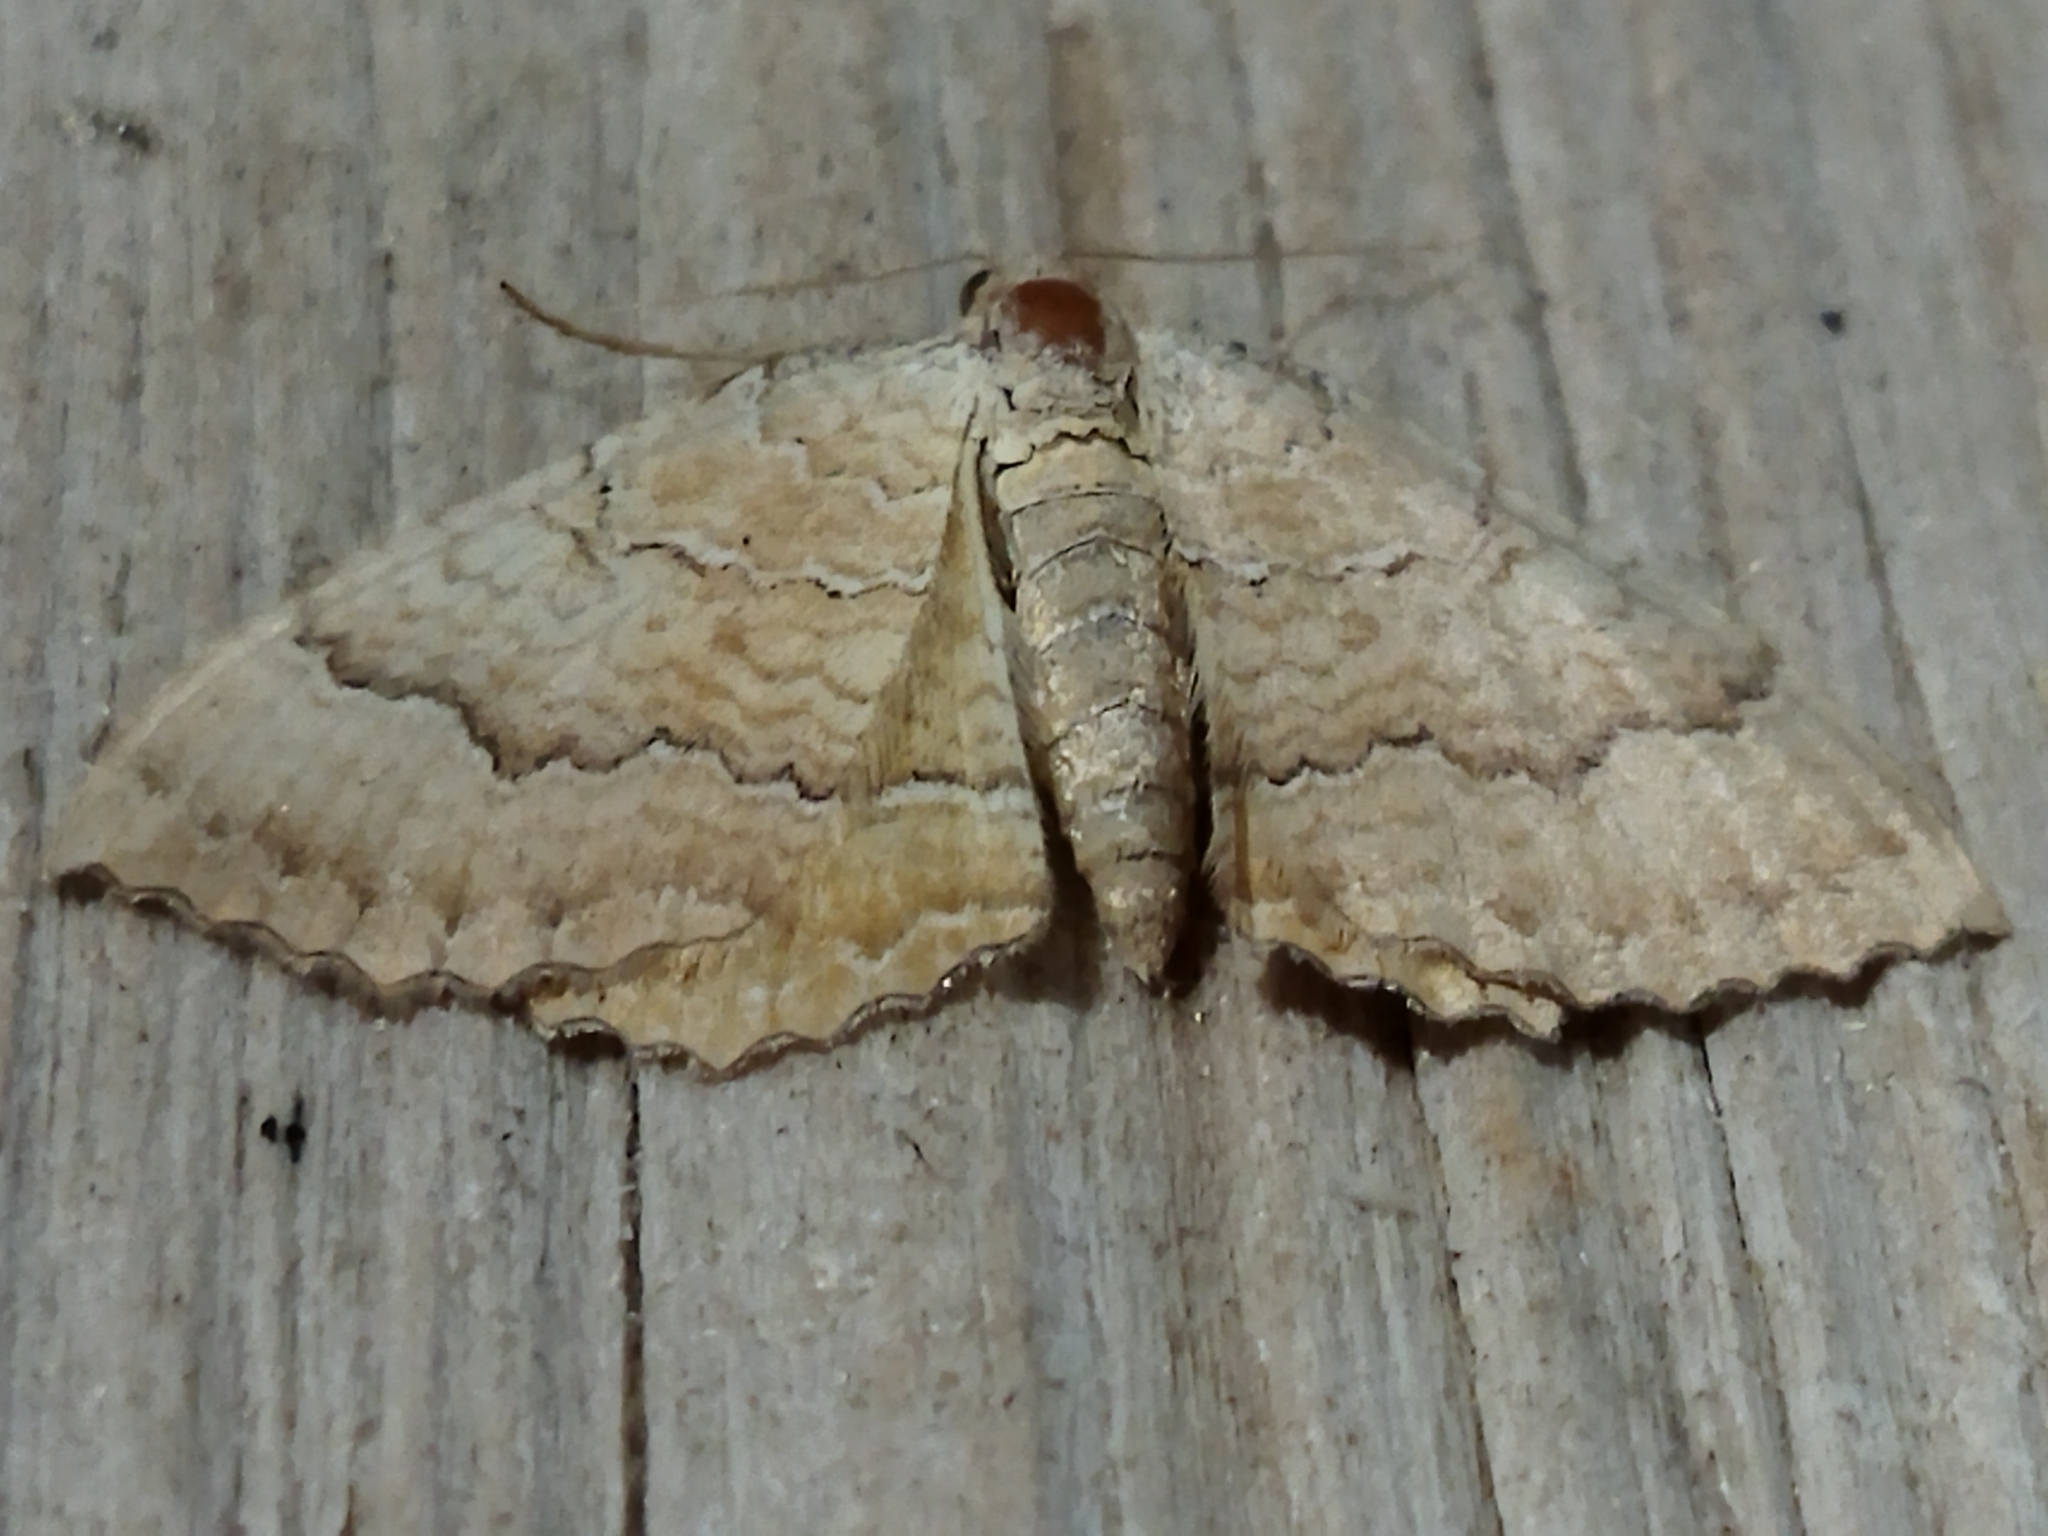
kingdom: Animalia
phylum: Arthropoda
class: Insecta
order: Lepidoptera
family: Geometridae
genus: Camptogramma
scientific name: Camptogramma bilineata
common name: Yellow shell
